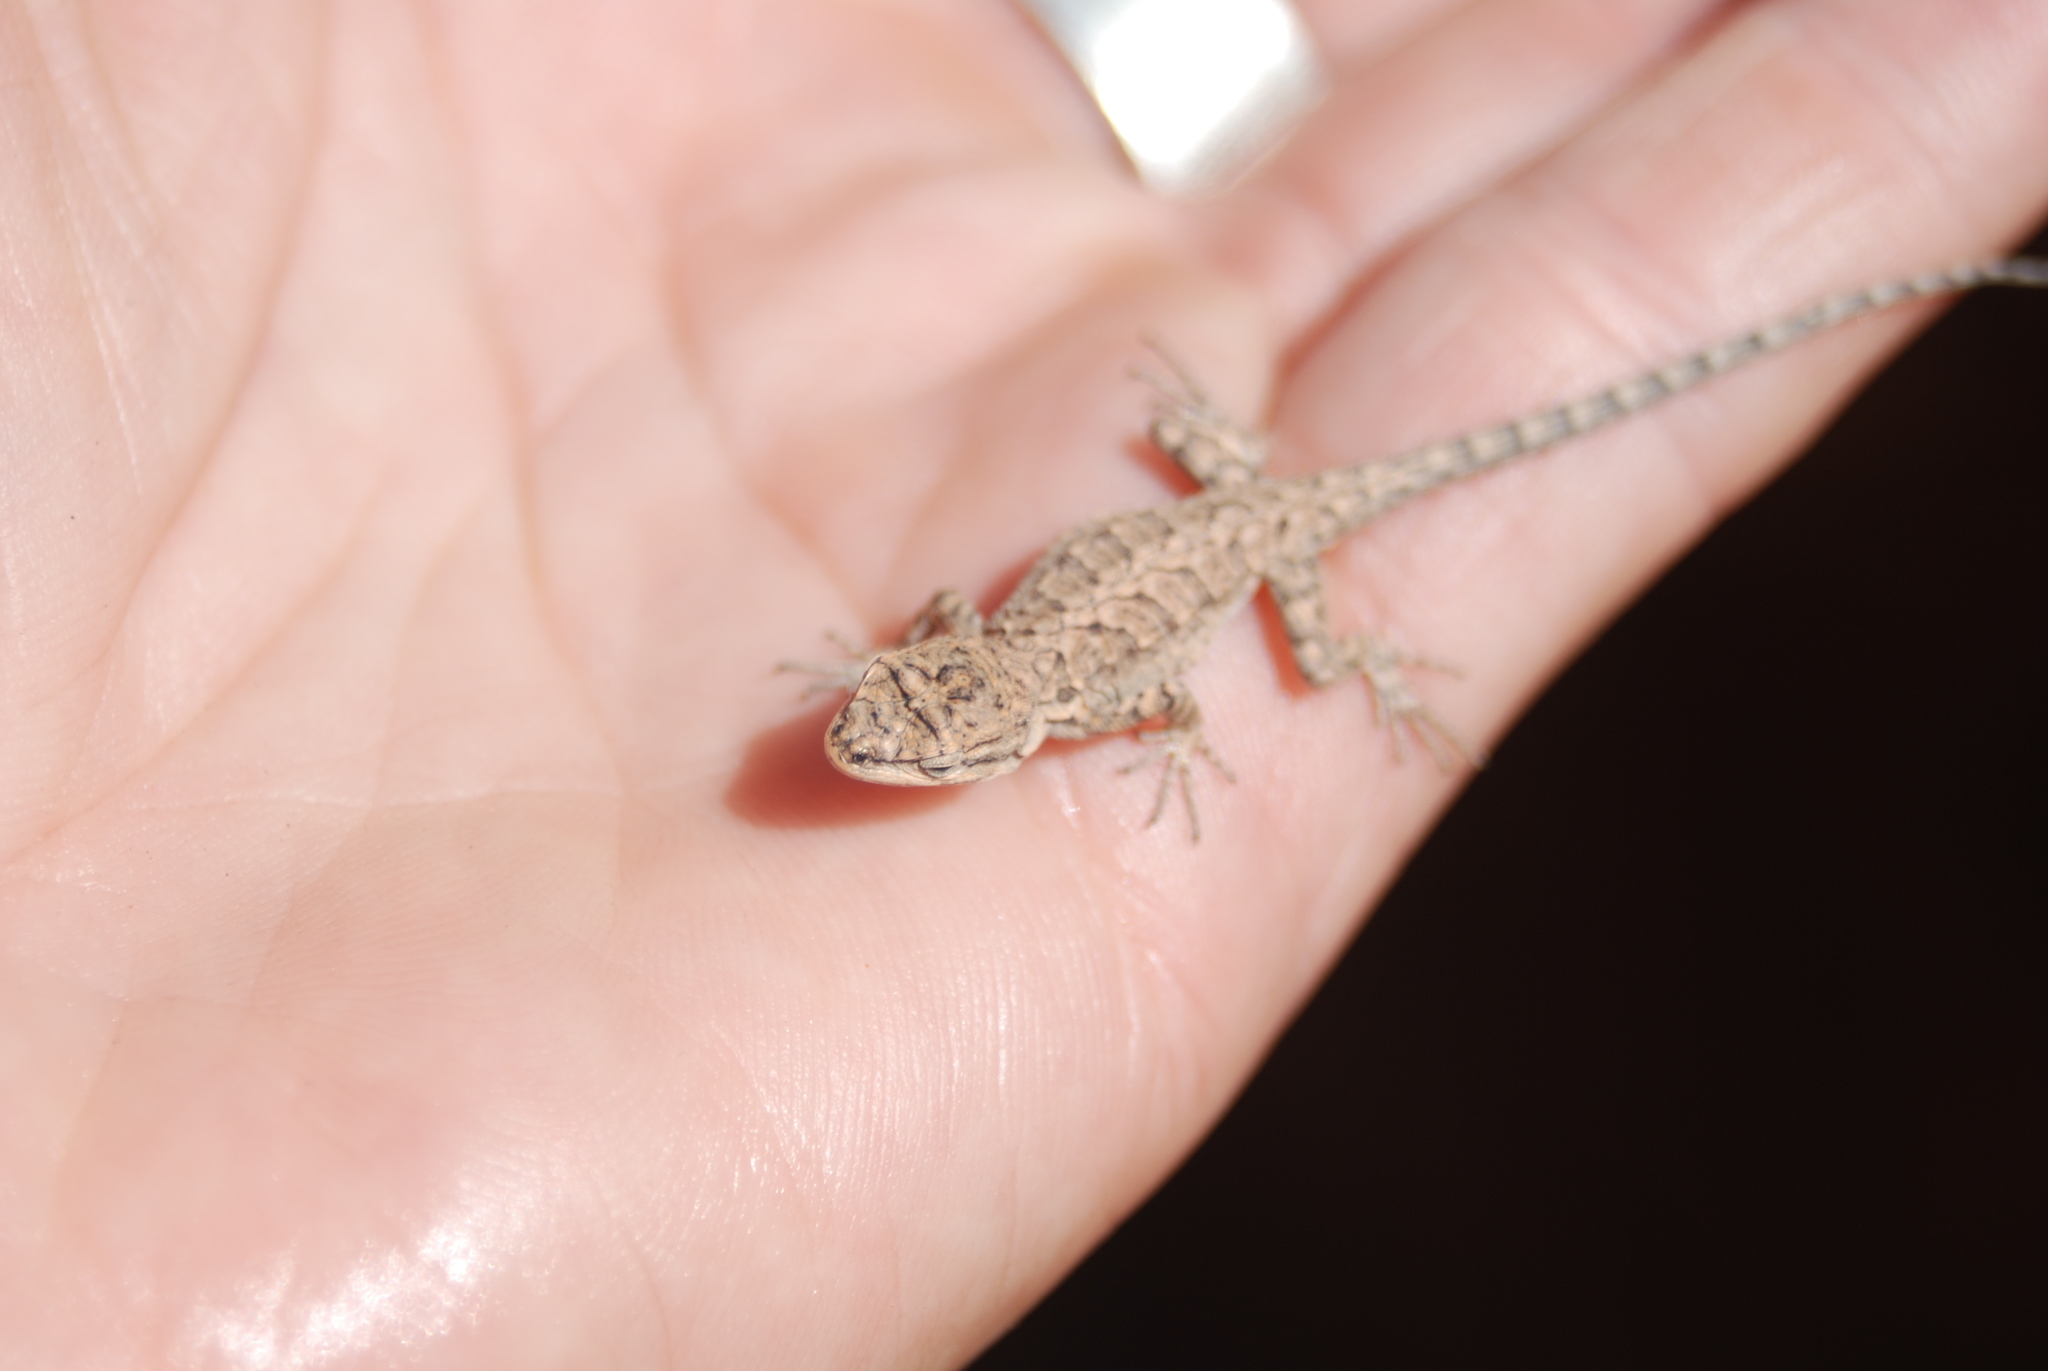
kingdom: Animalia
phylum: Chordata
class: Squamata
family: Phrynosomatidae
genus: Urosaurus
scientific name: Urosaurus ornatus
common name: Ornate tree lizard
